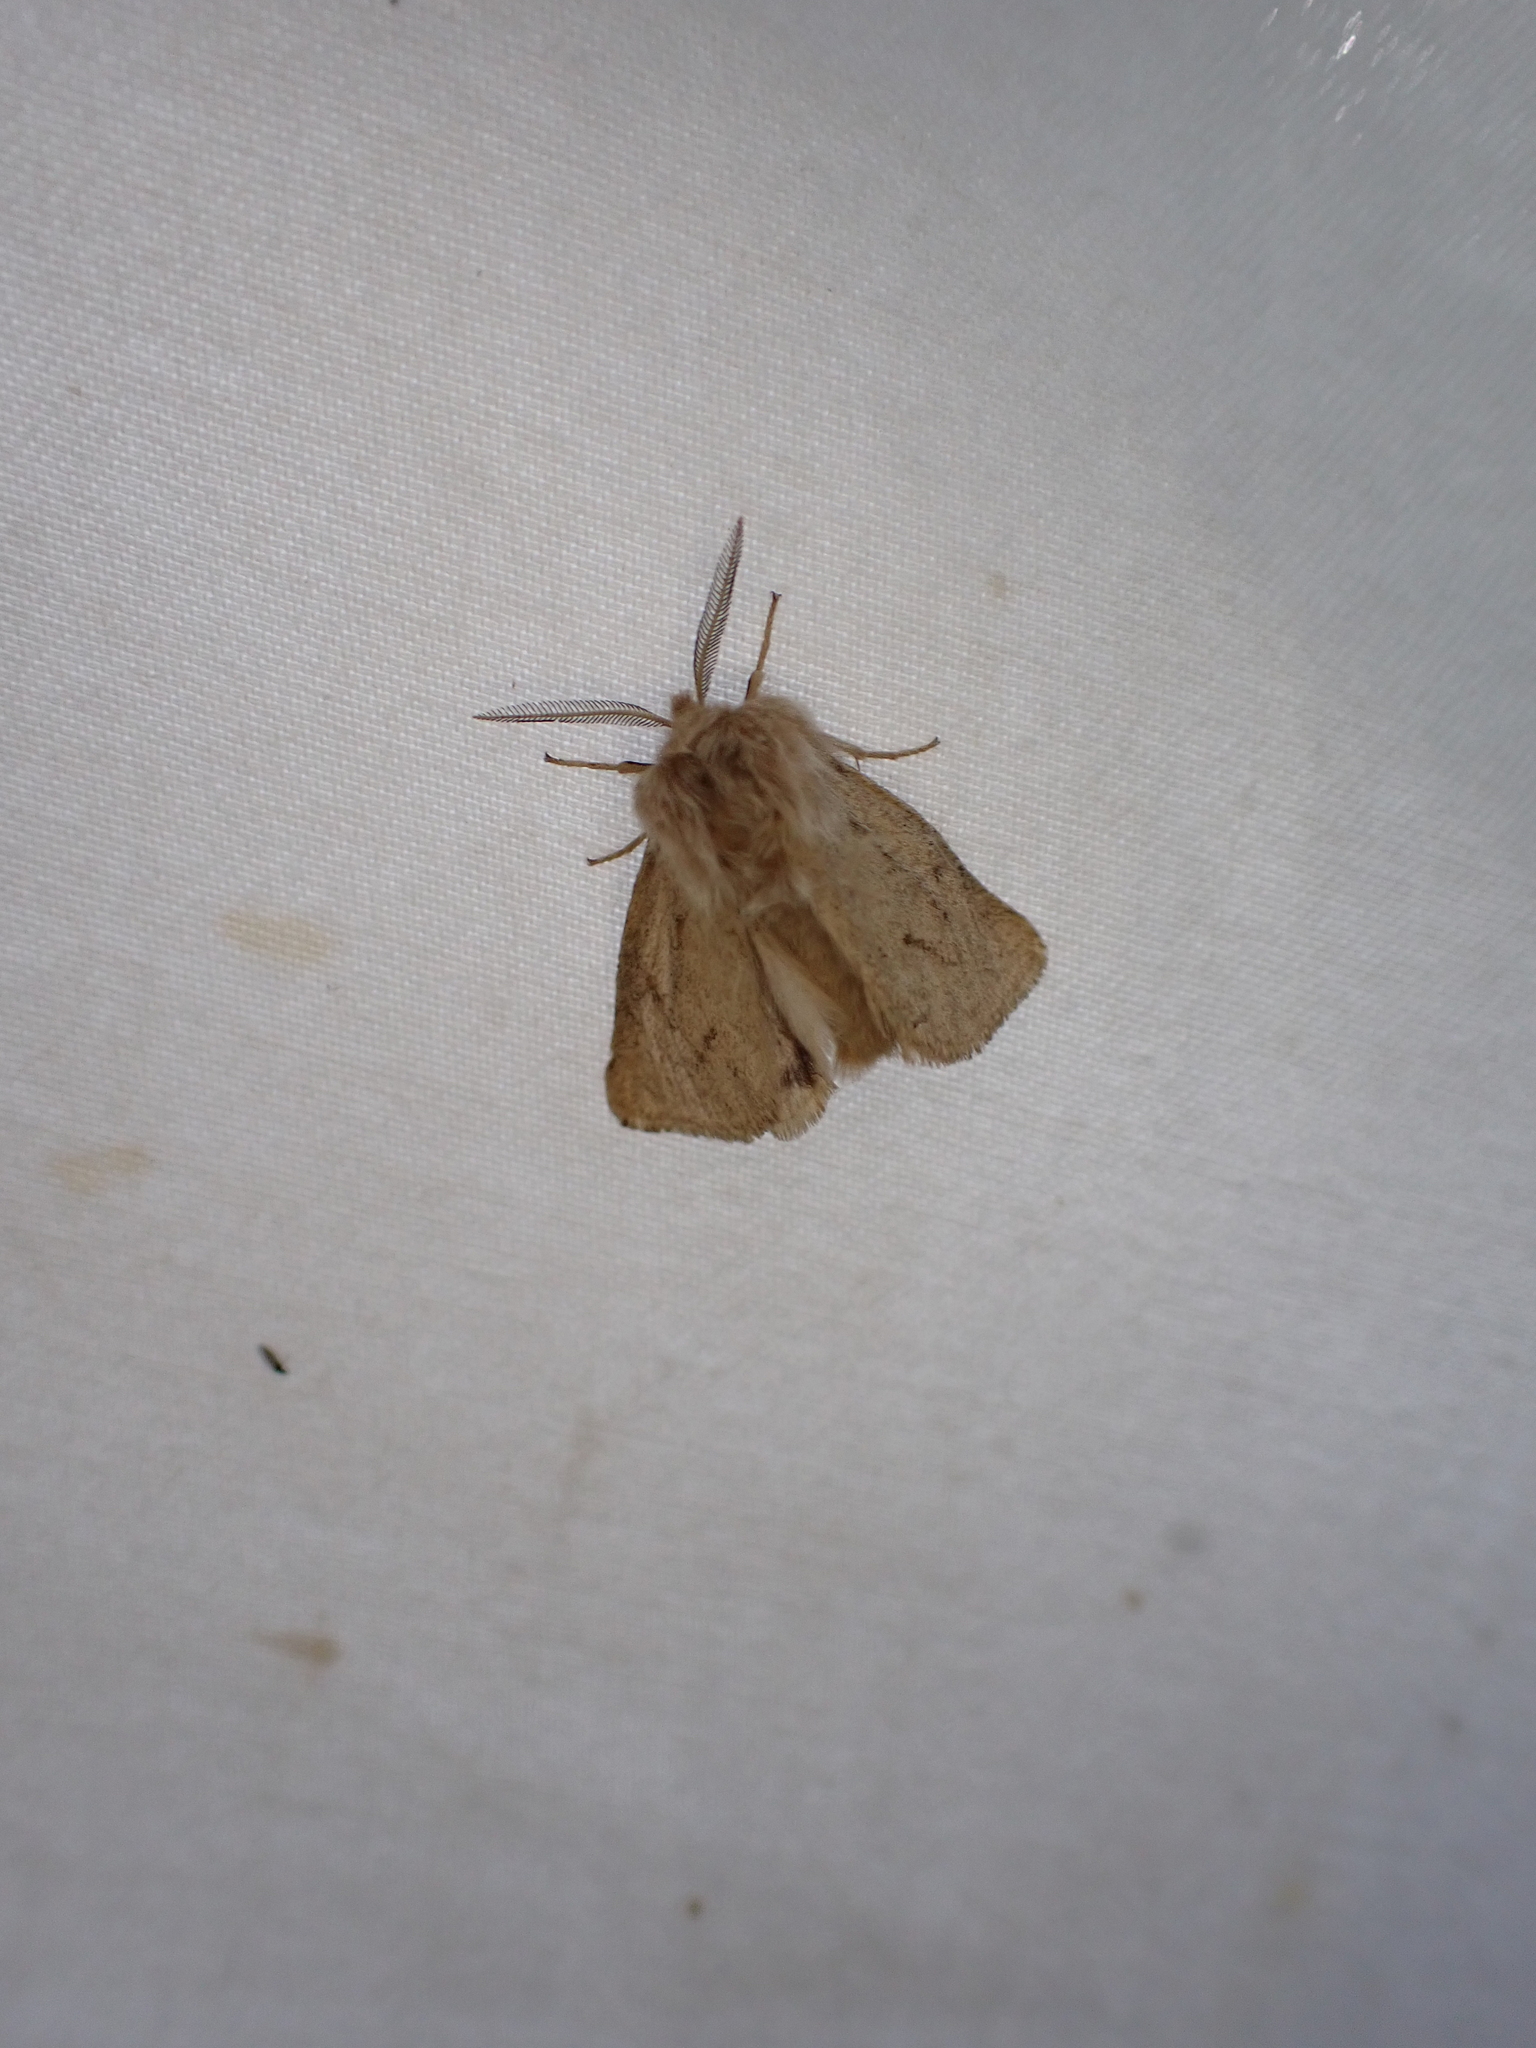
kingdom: Animalia
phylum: Arthropoda
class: Insecta
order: Lepidoptera
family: Erebidae
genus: Spilosoma
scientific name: Spilosoma vagans
